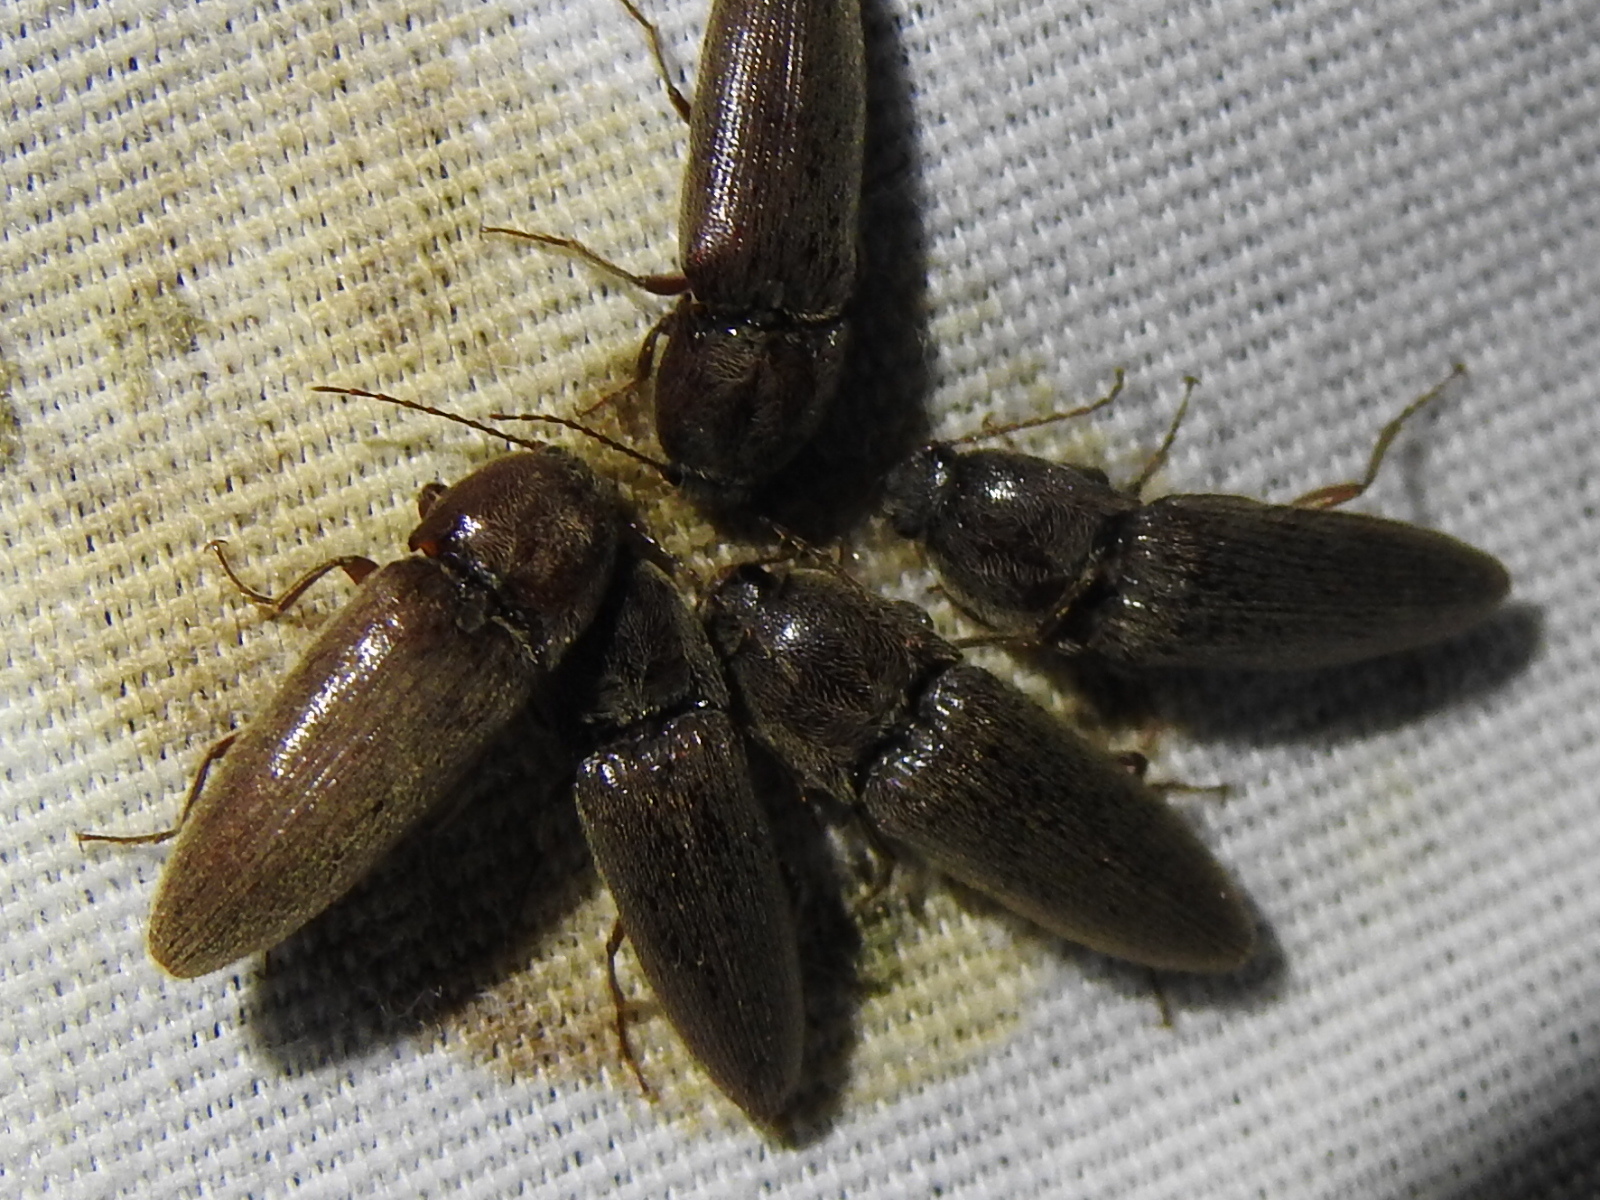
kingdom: Animalia
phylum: Arthropoda
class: Insecta
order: Coleoptera
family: Elateridae
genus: Melanotus
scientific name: Melanotus
